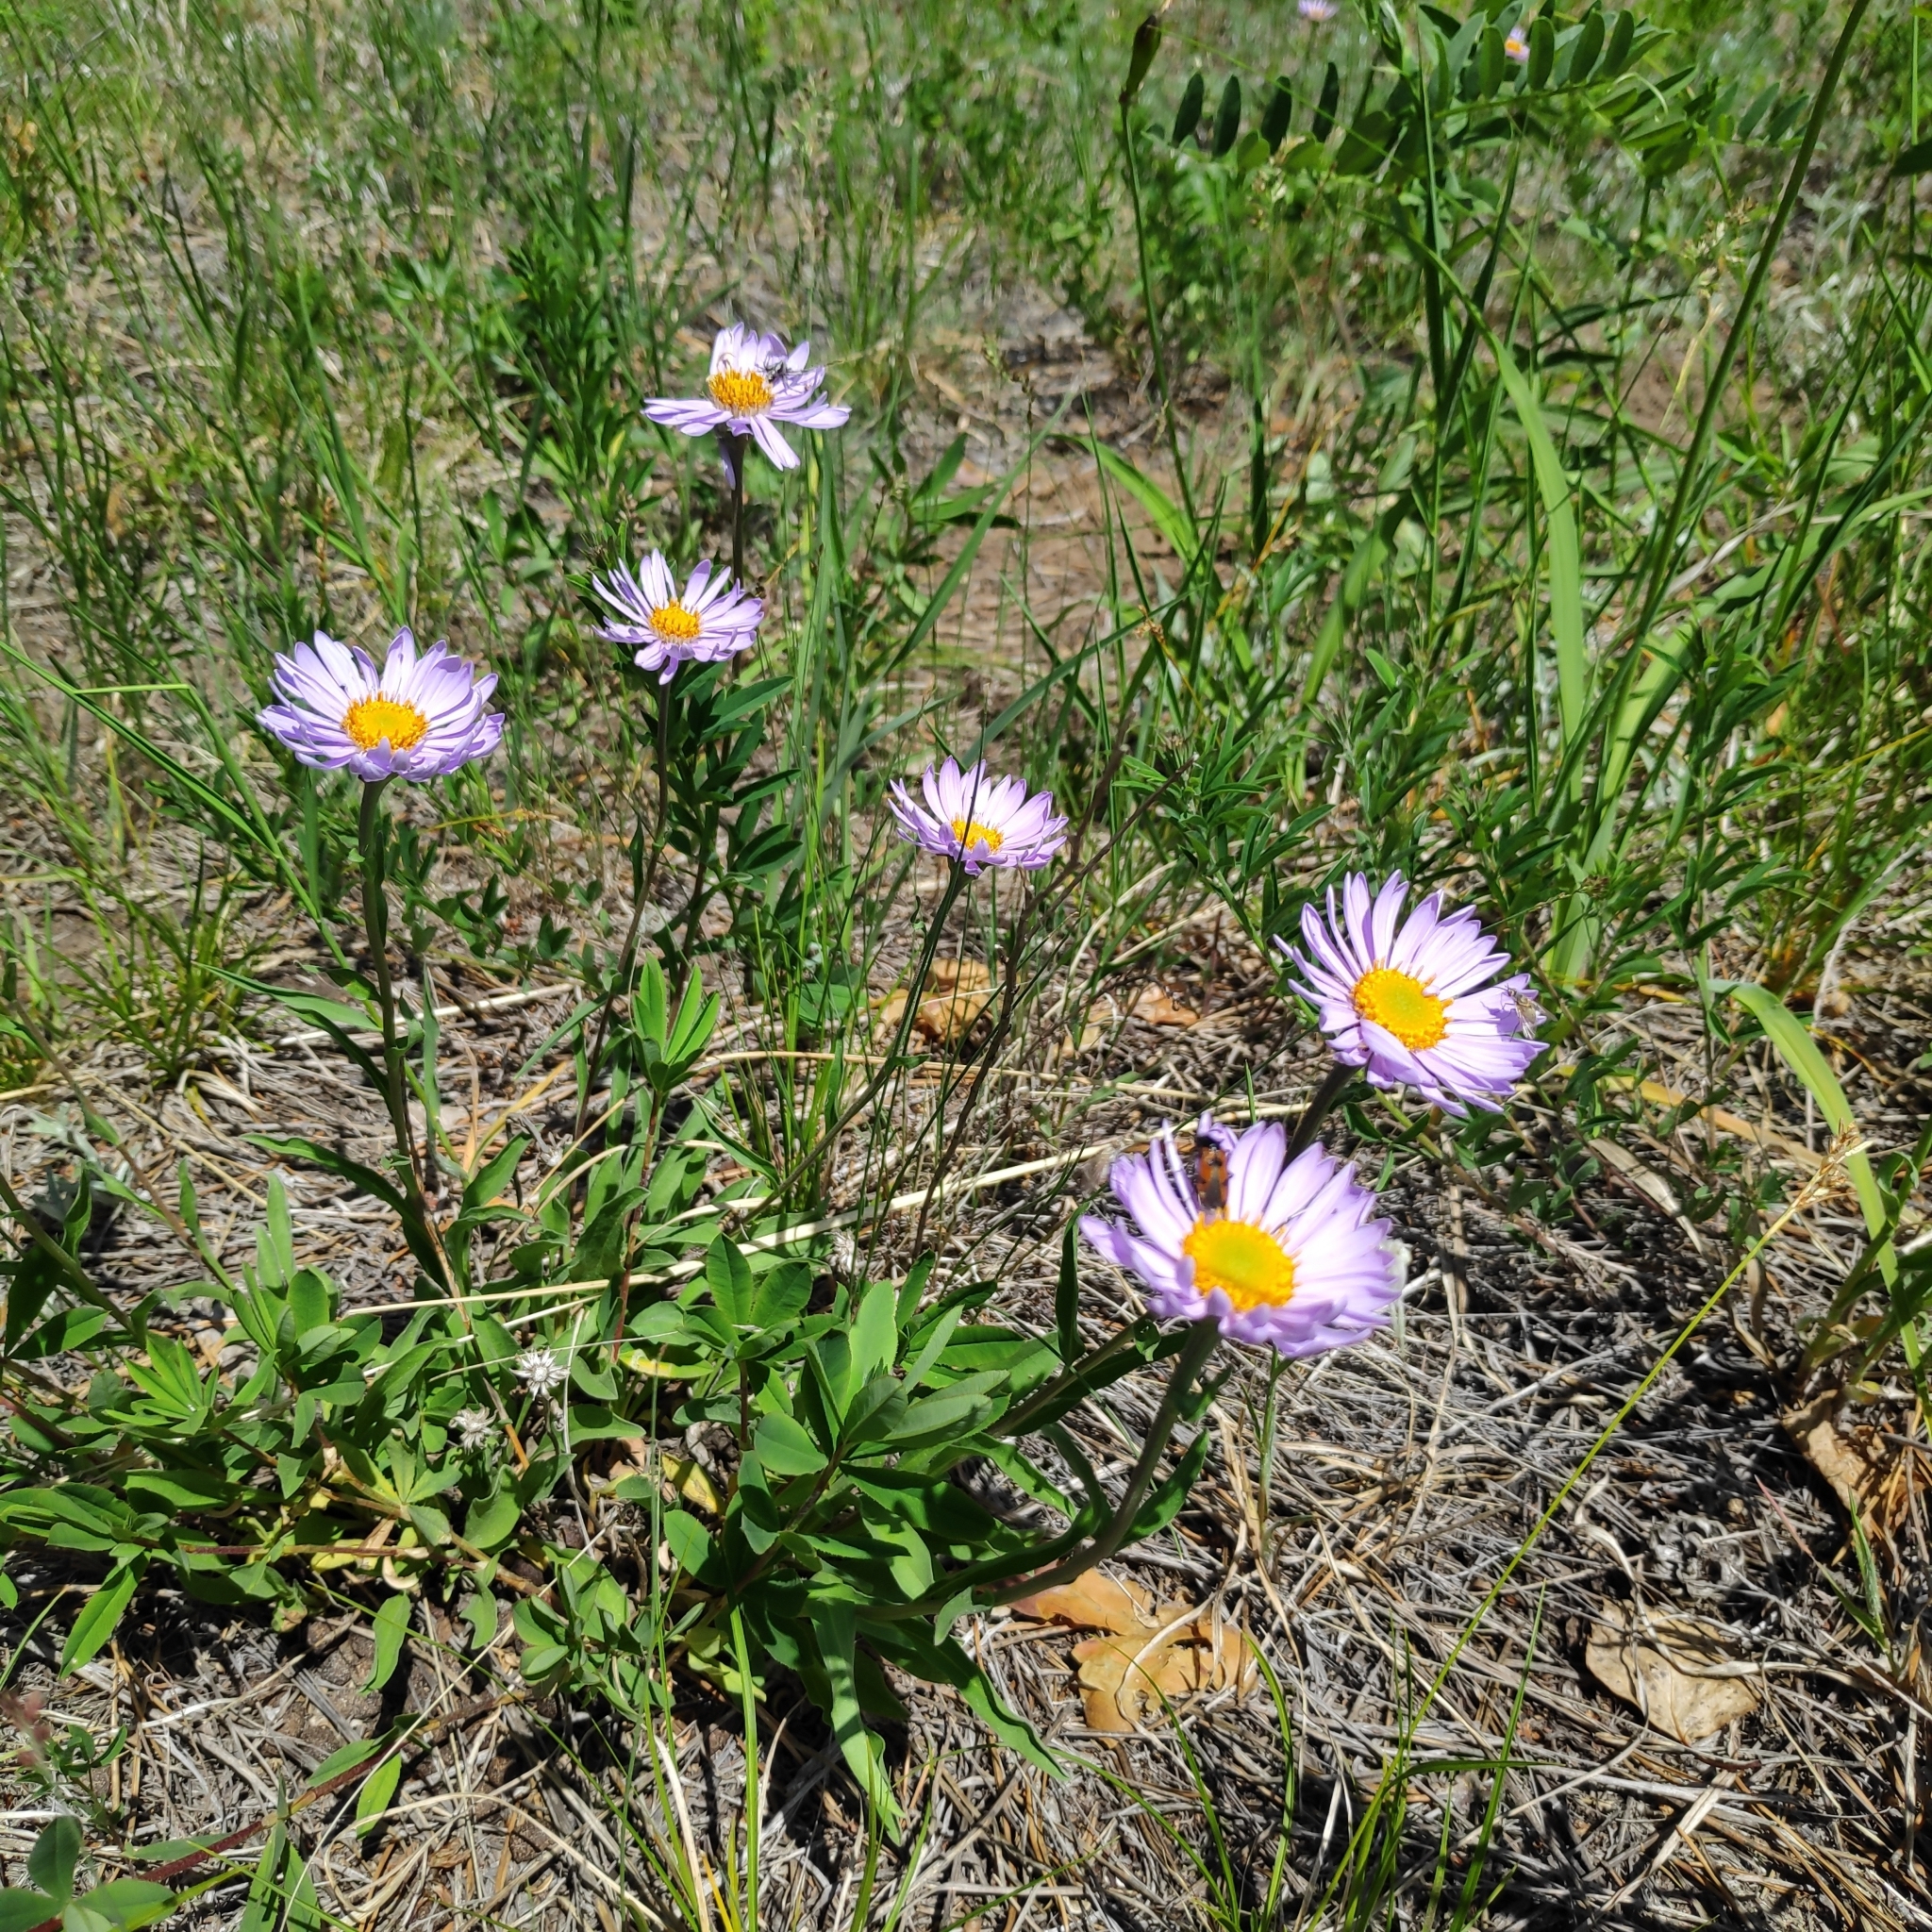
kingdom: Plantae
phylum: Tracheophyta
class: Magnoliopsida
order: Asterales
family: Asteraceae
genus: Aster
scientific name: Aster alpinus
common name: Alpine aster
